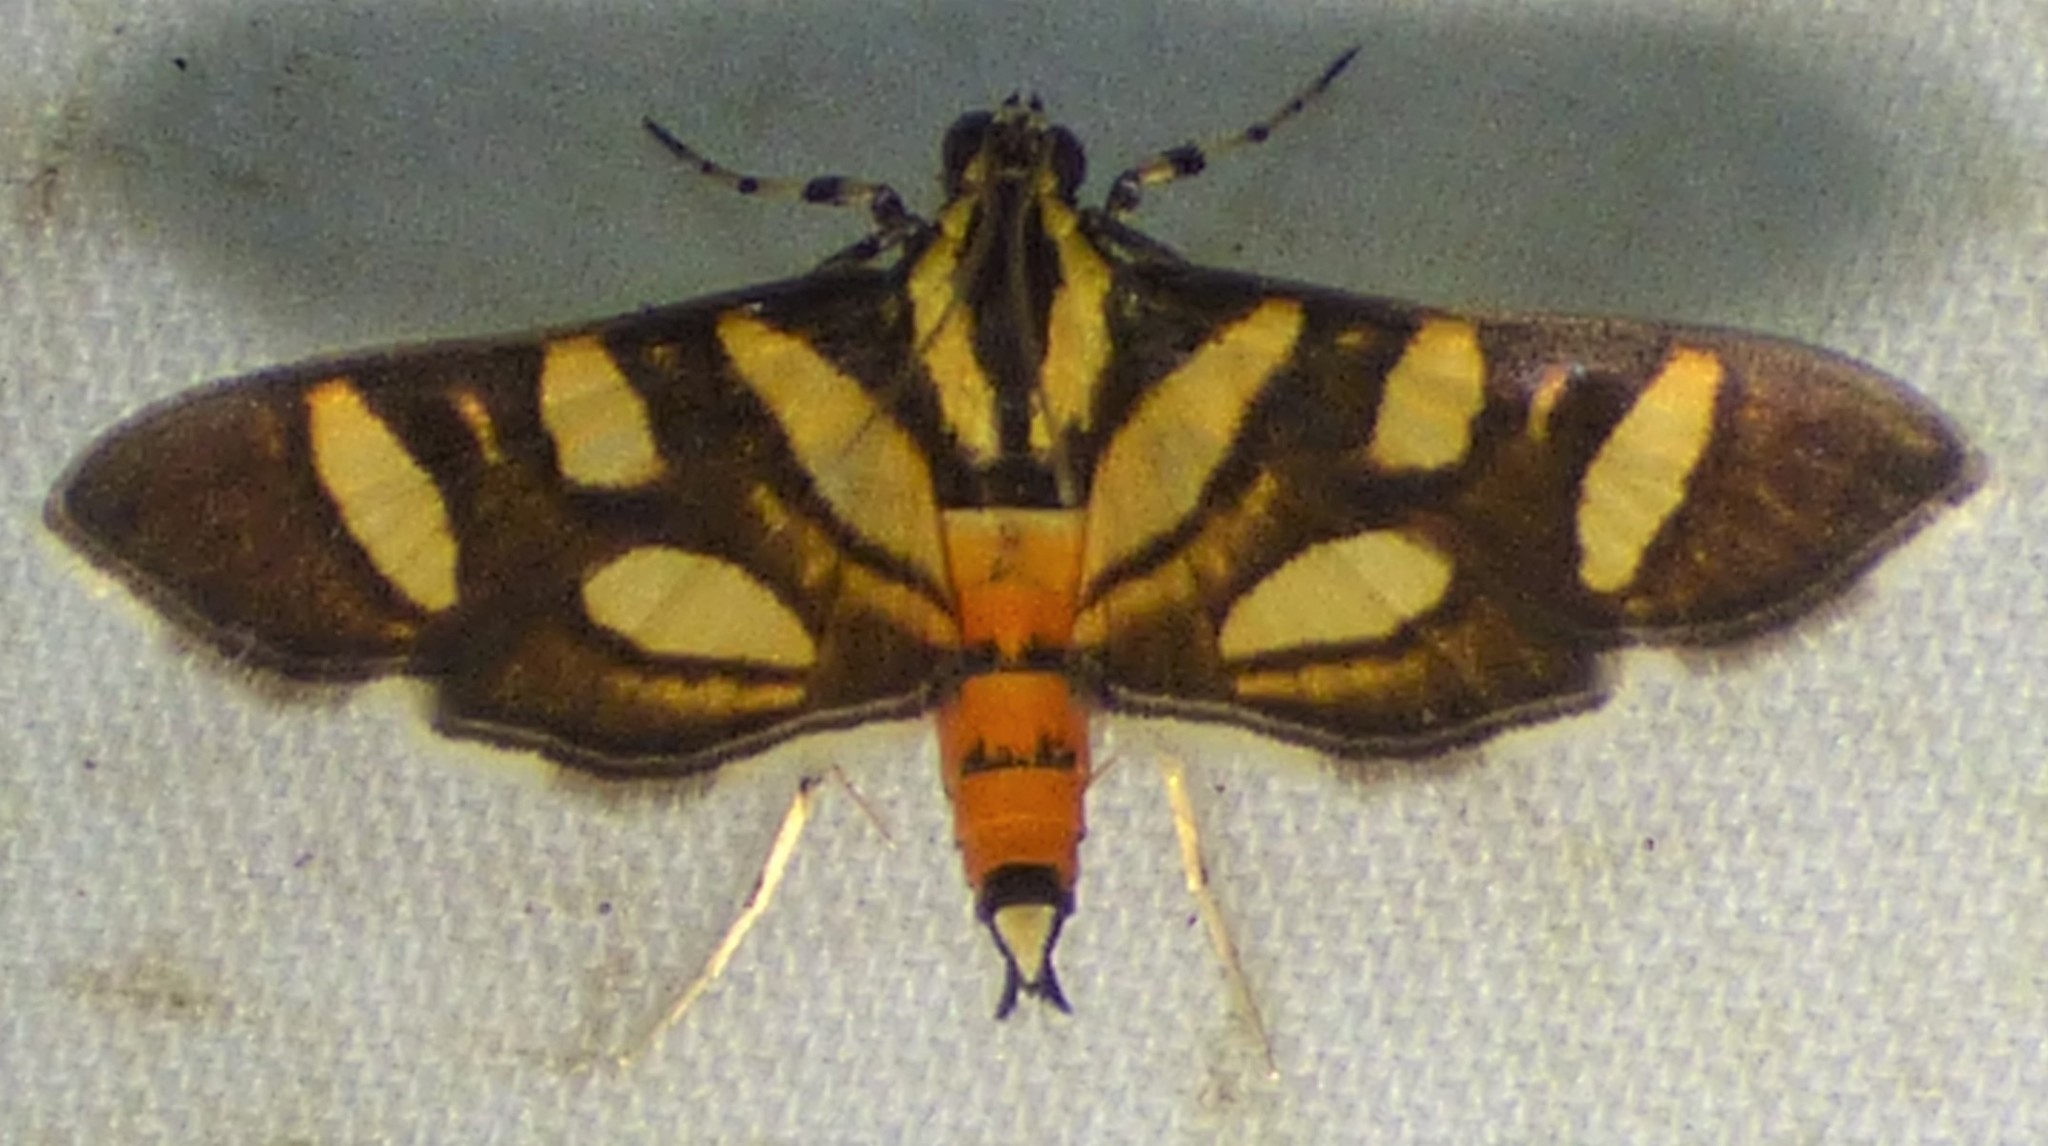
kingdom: Animalia
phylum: Arthropoda
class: Insecta
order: Lepidoptera
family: Crambidae
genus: Syngamia
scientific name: Syngamia florella
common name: Orange-spotted flower moth
